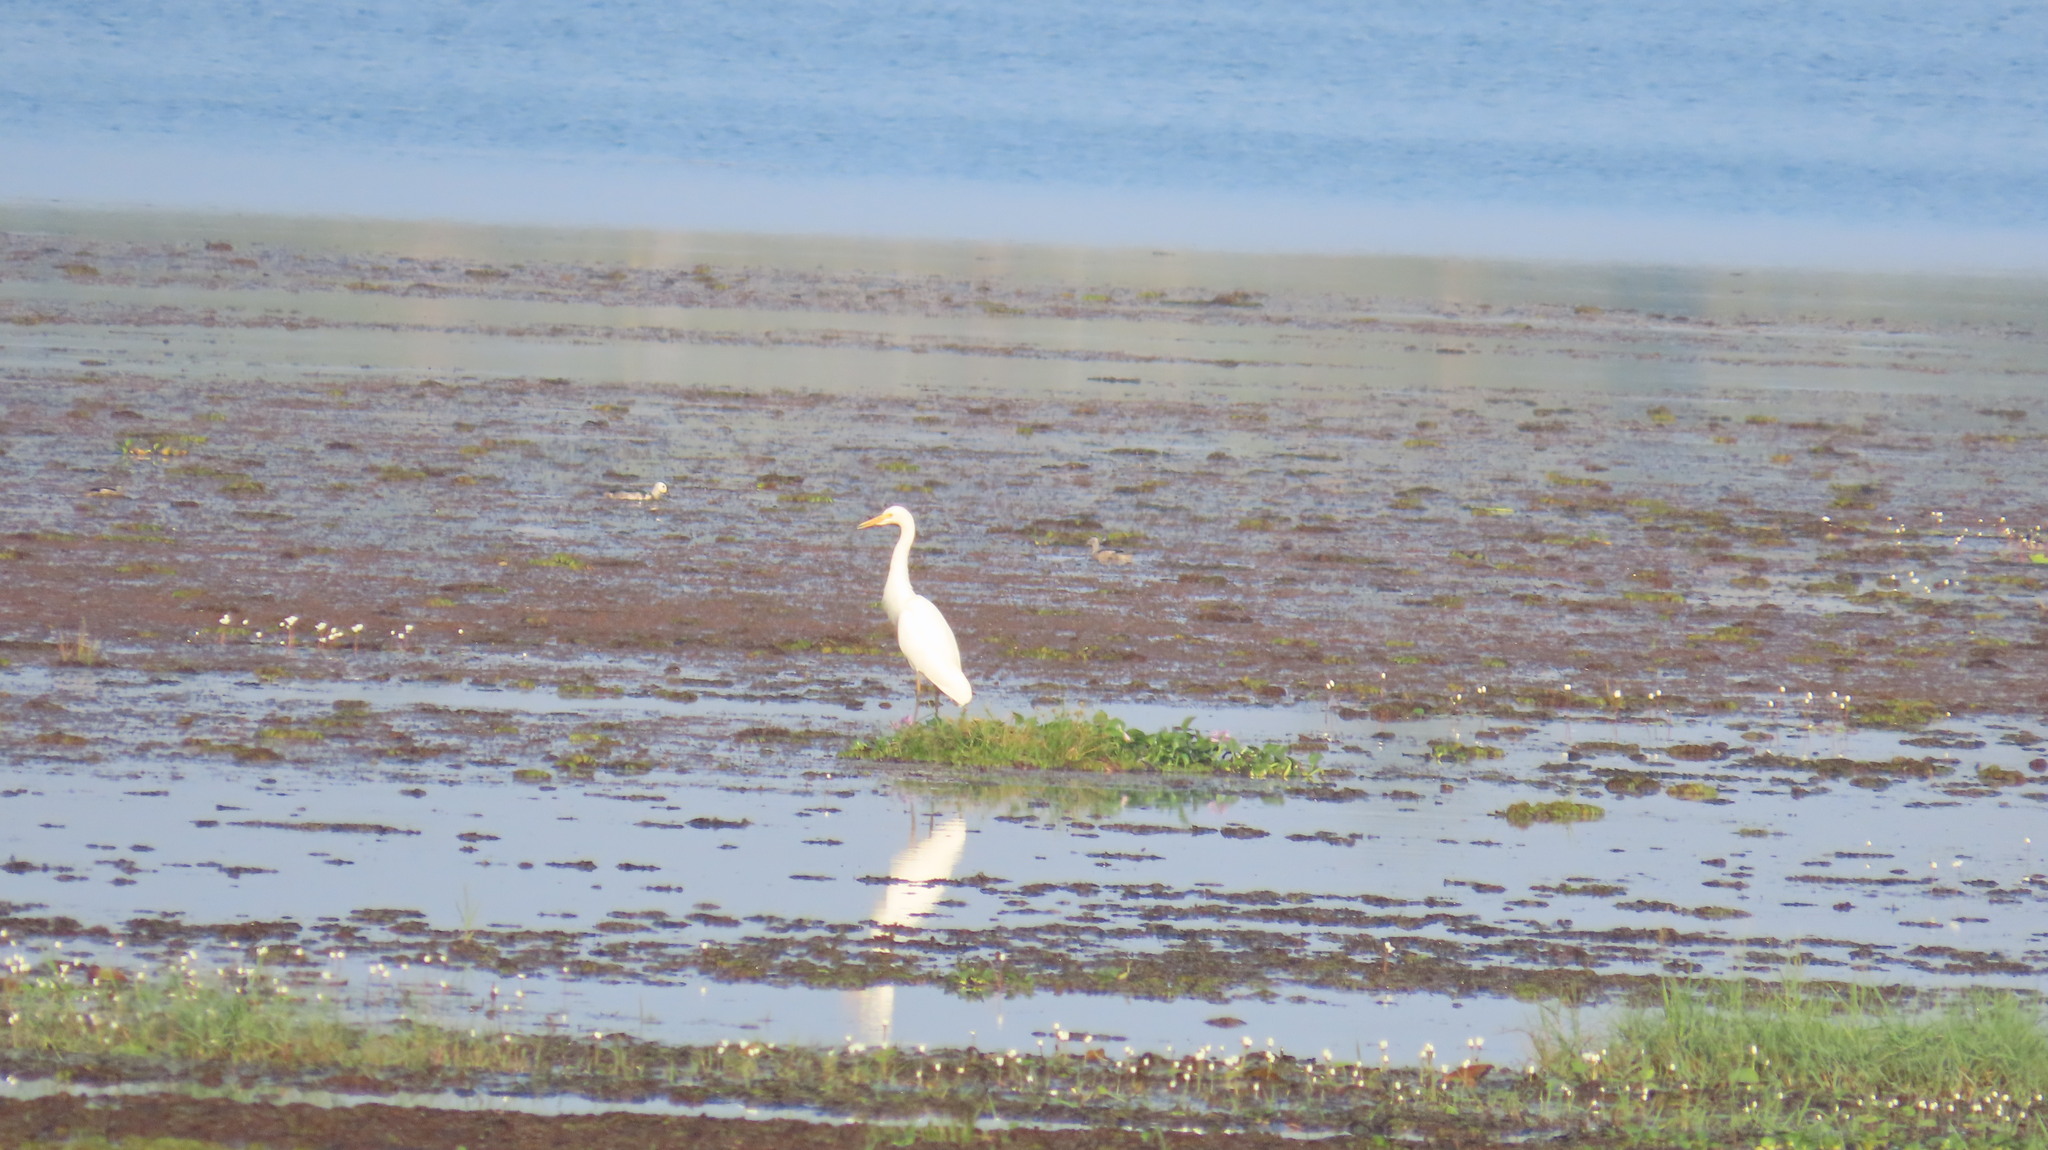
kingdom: Animalia
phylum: Chordata
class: Aves
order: Pelecaniformes
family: Ardeidae
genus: Egretta
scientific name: Egretta intermedia
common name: Intermediate egret
